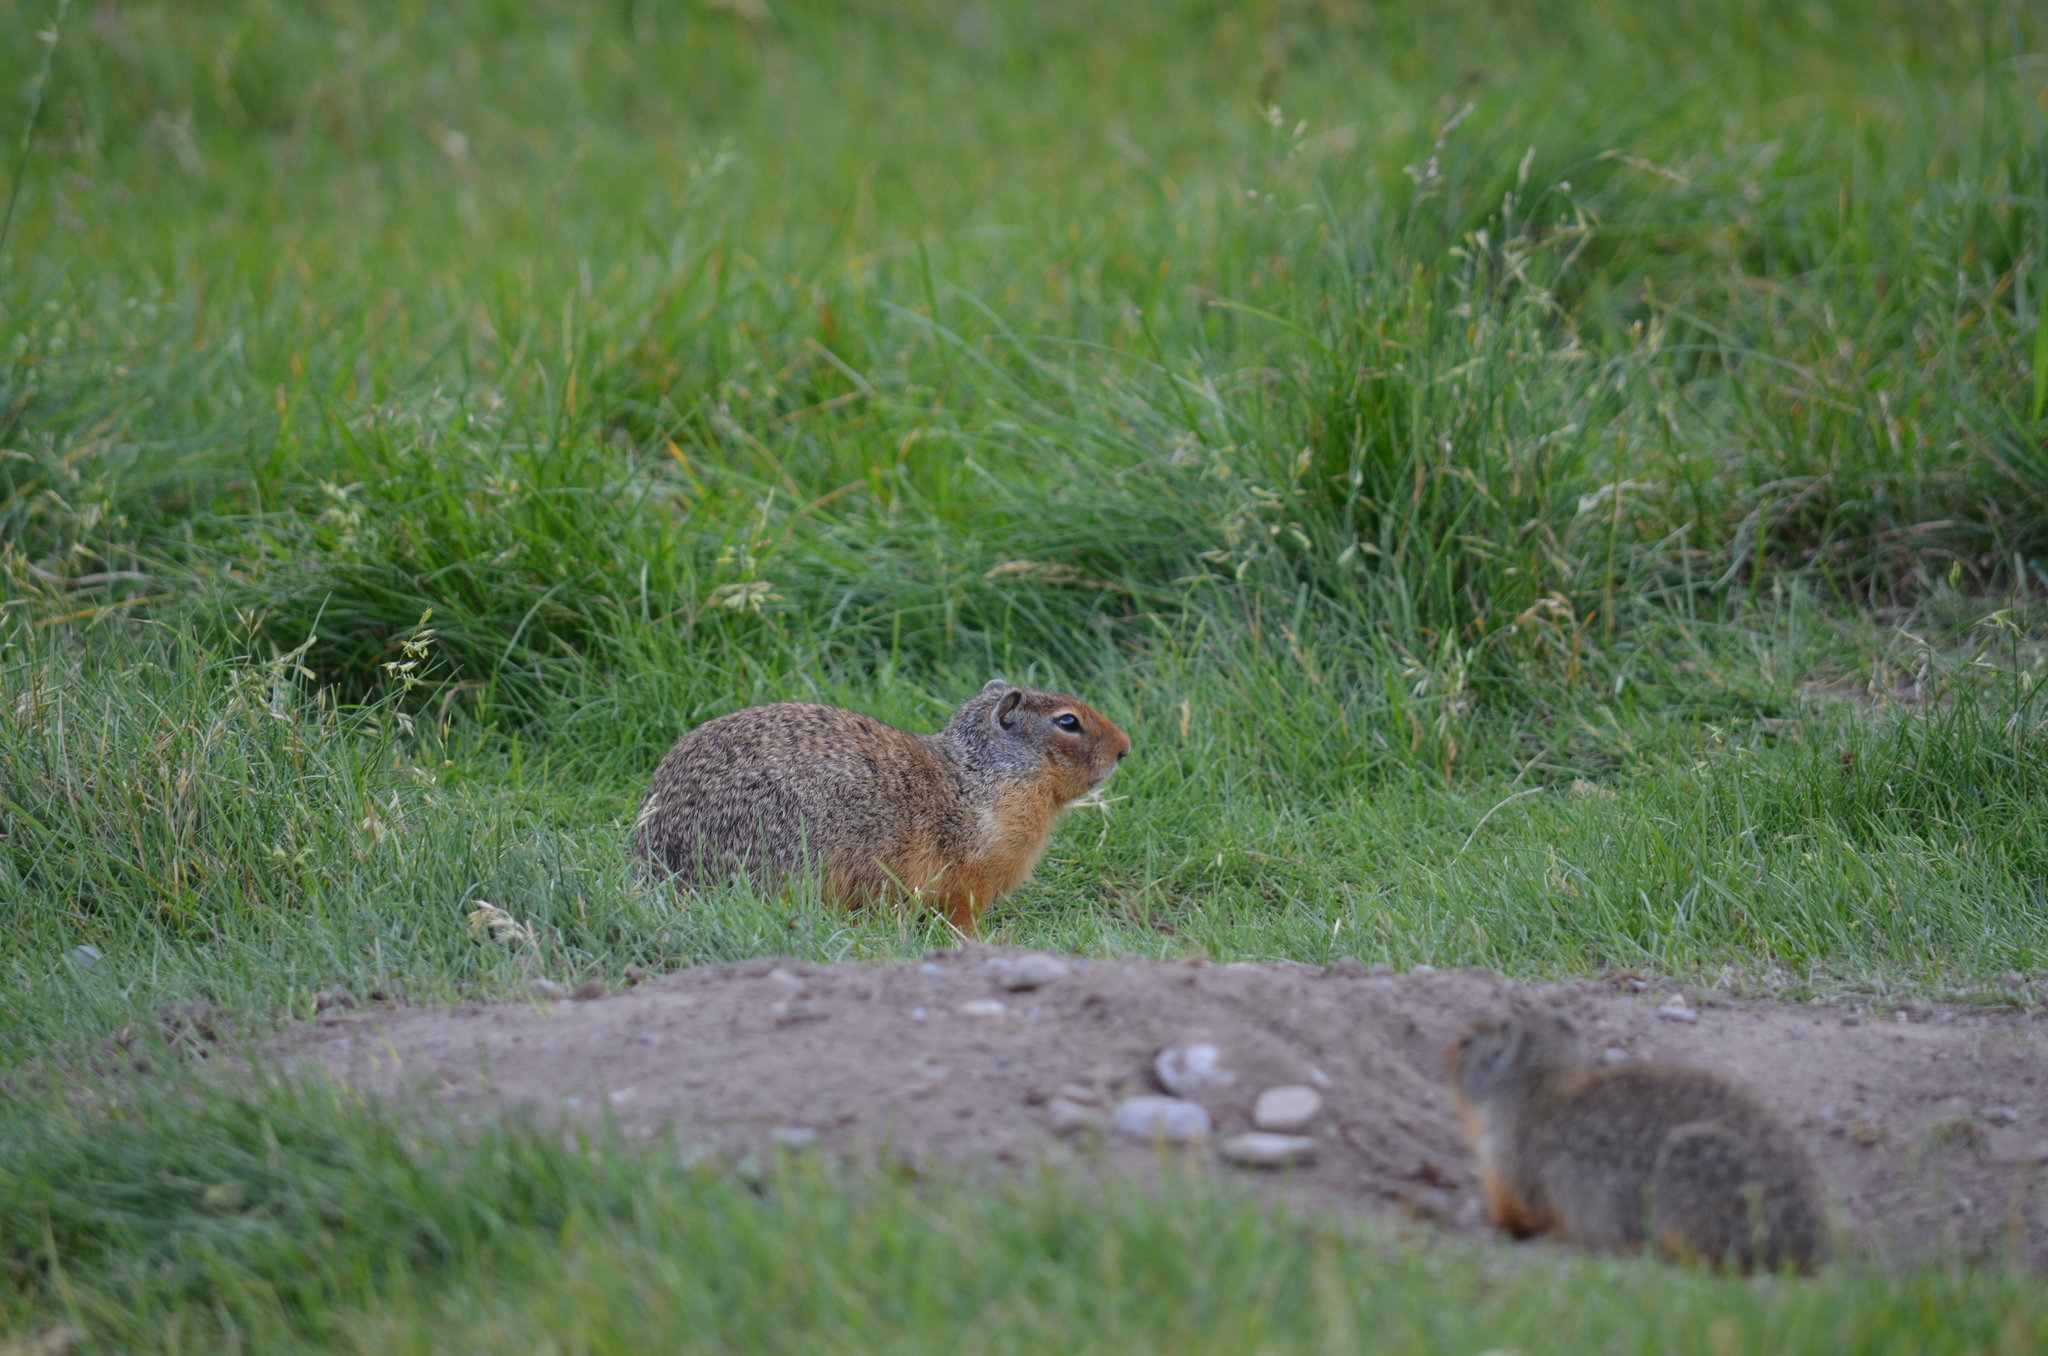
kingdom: Animalia
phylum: Chordata
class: Mammalia
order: Rodentia
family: Sciuridae
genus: Urocitellus
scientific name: Urocitellus columbianus
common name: Columbian ground squirrel
